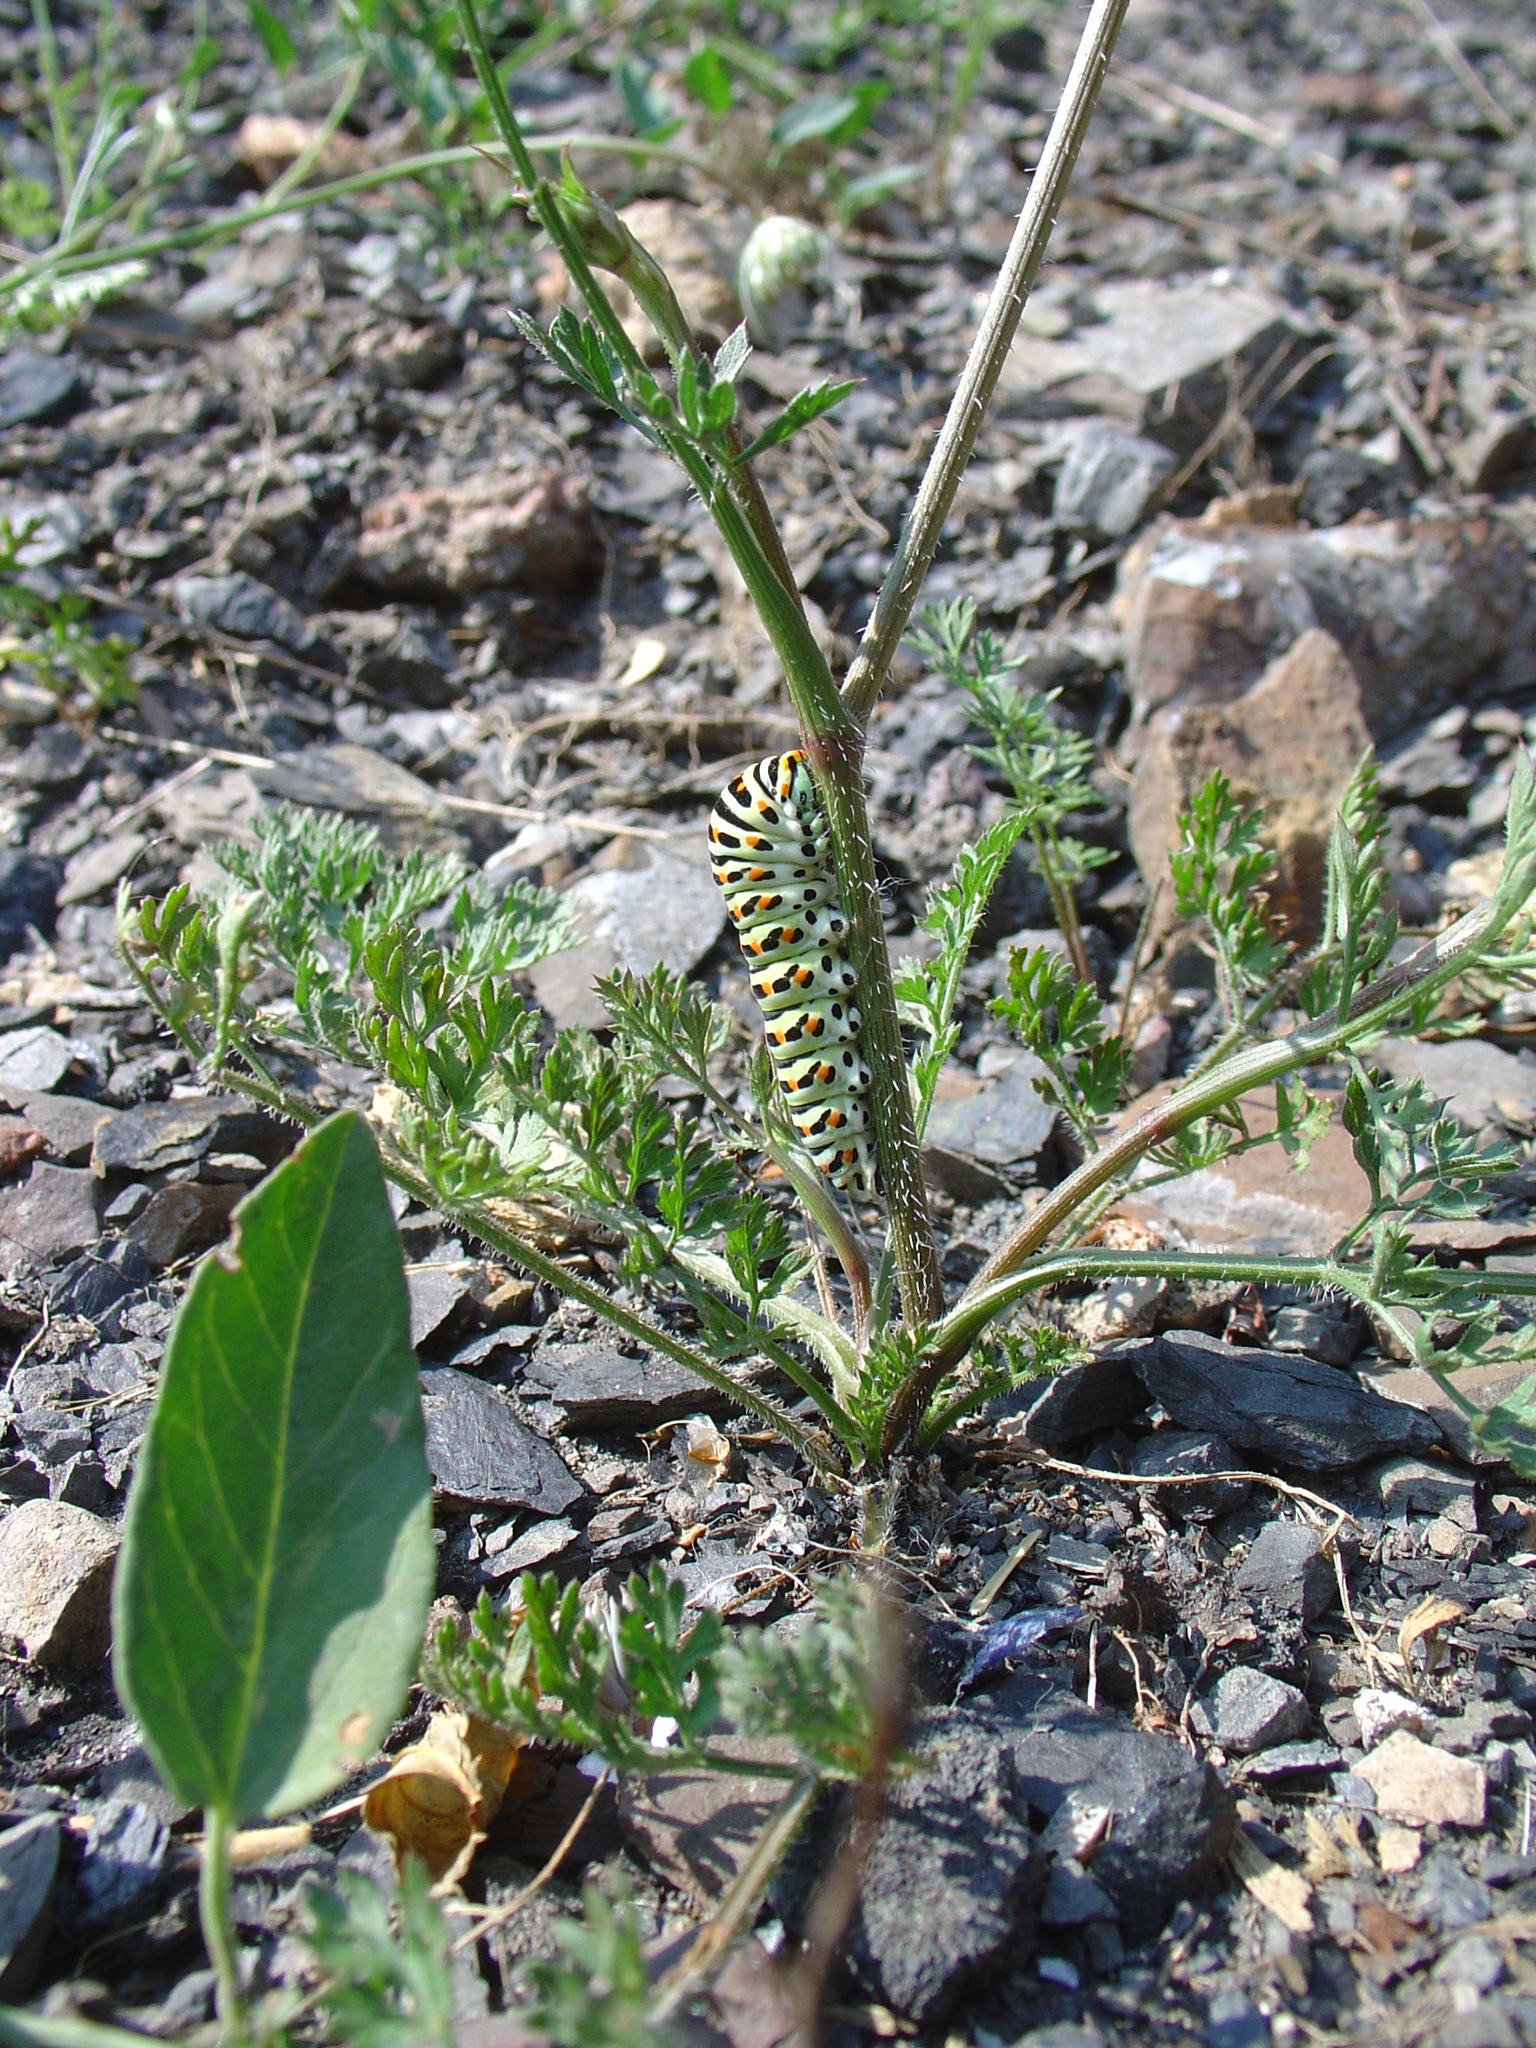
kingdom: Animalia
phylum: Arthropoda
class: Insecta
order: Lepidoptera
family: Papilionidae
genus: Papilio
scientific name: Papilio machaon
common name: Swallowtail
